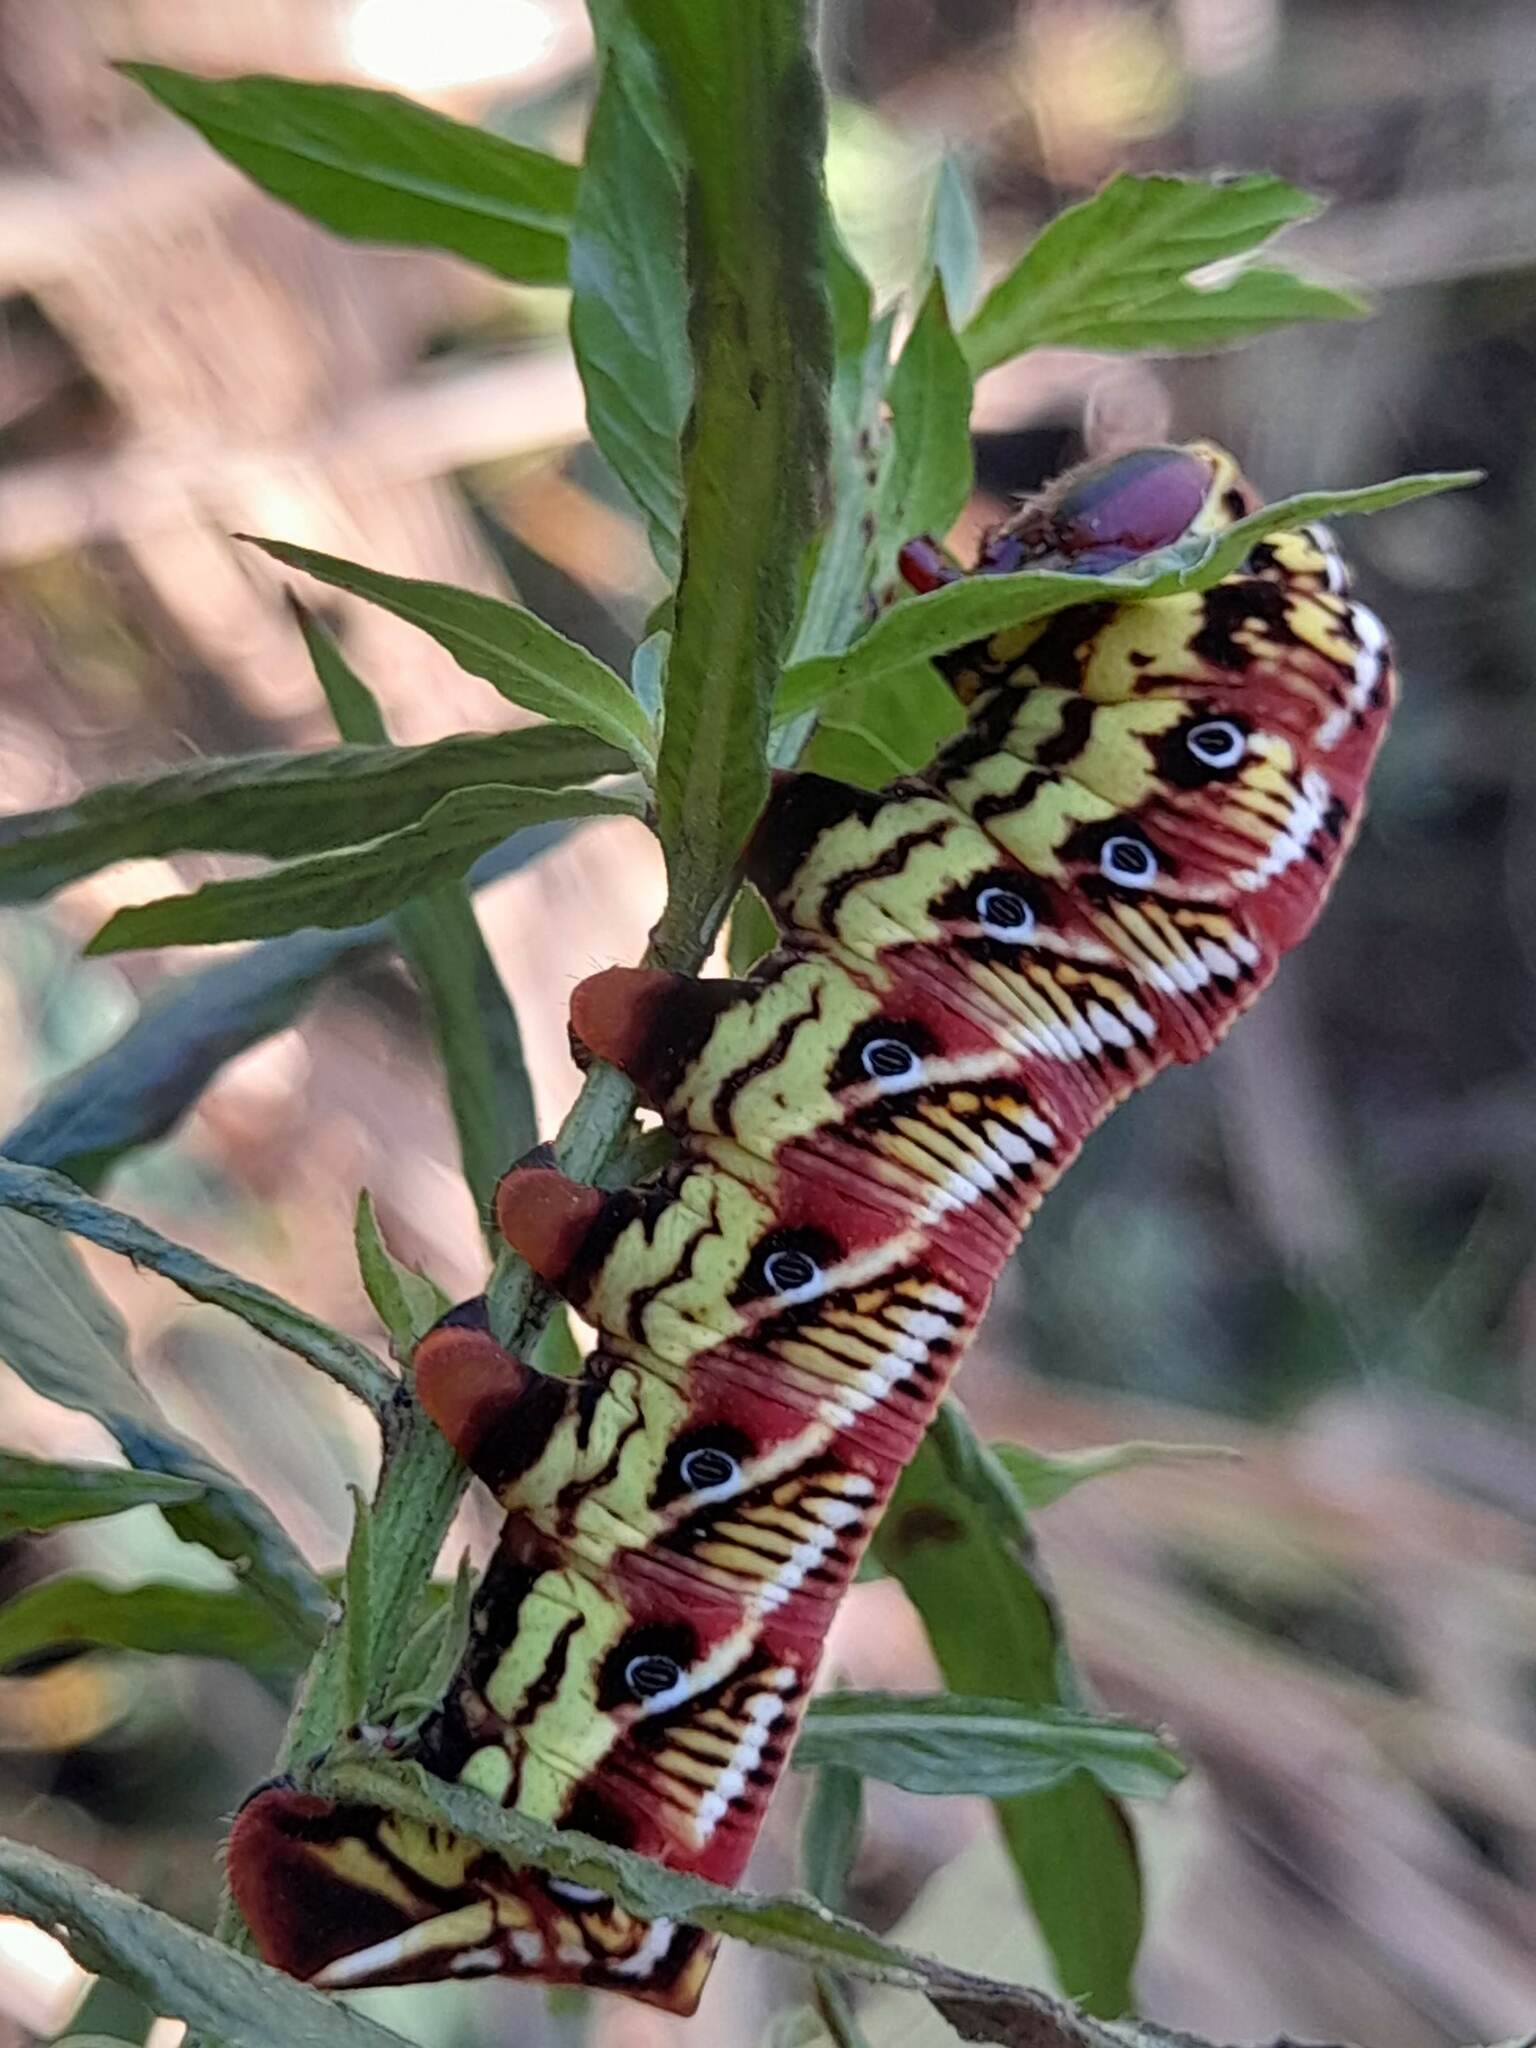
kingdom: Animalia
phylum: Arthropoda
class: Insecta
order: Lepidoptera
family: Sphingidae
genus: Eumorpha
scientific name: Eumorpha fasciatus
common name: Banded sphinx
